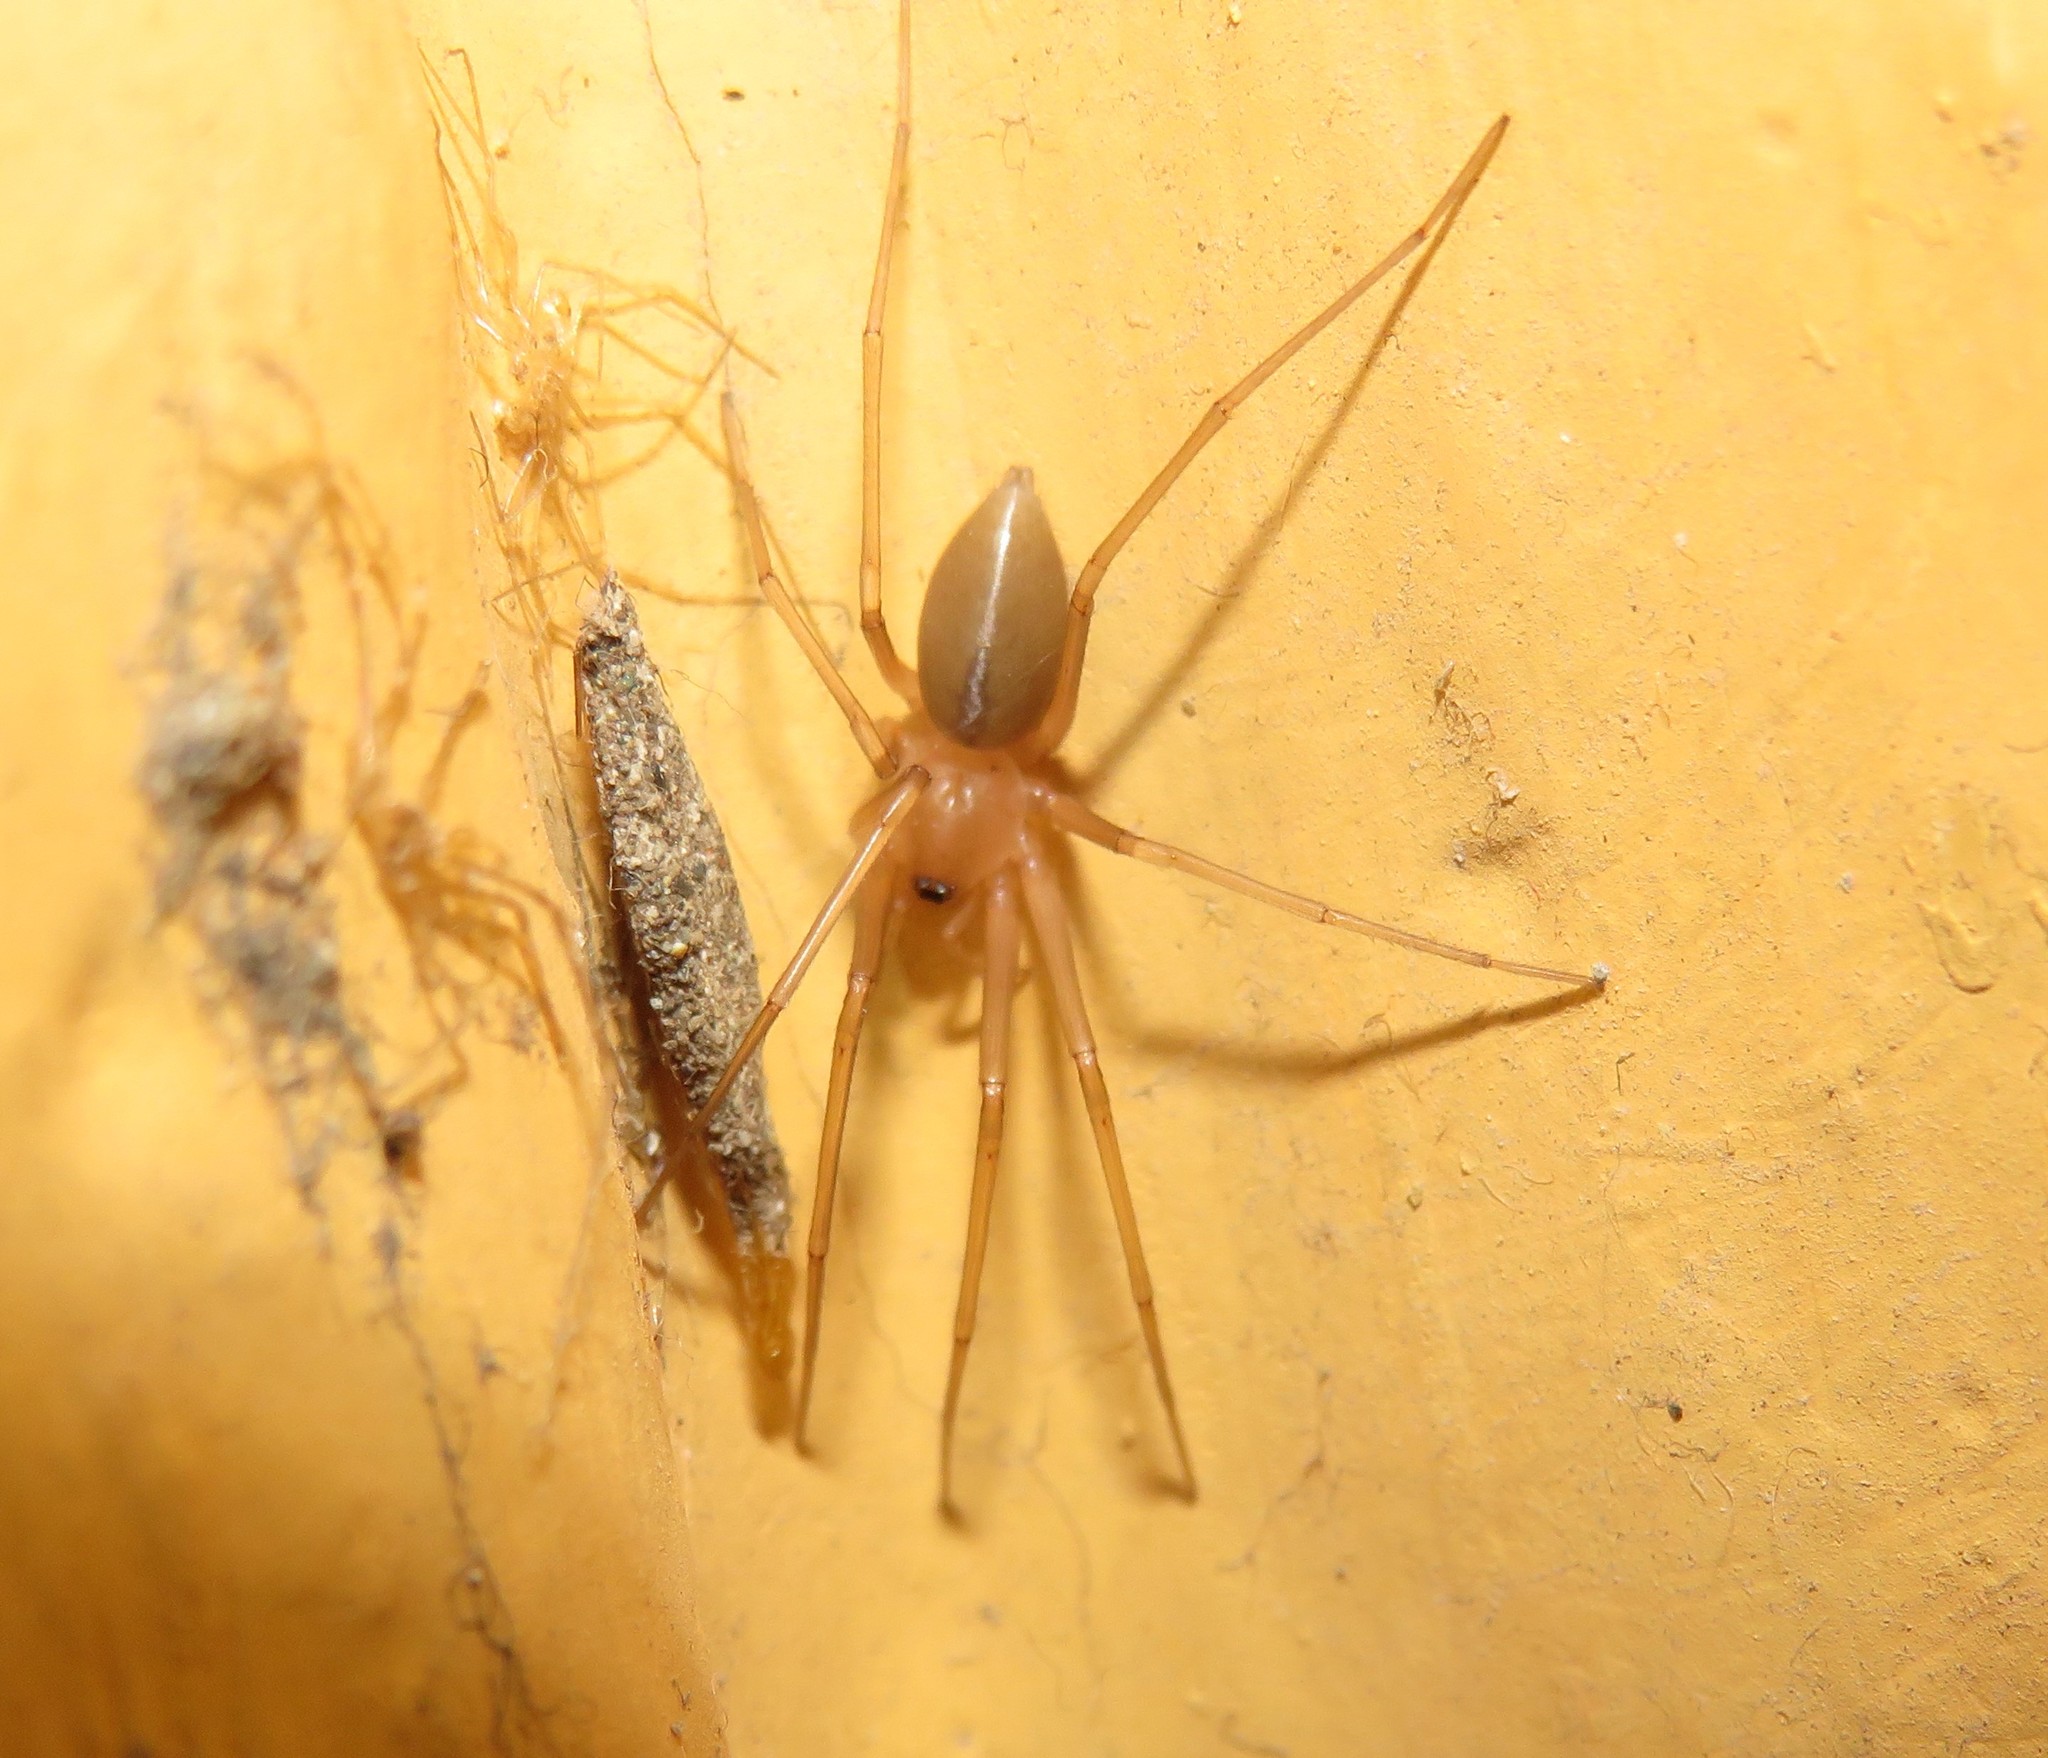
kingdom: Animalia
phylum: Arthropoda
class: Arachnida
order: Araneae
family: Cithaeronidae
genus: Cithaeron
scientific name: Cithaeron praedonius
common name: Synanthropic spider
